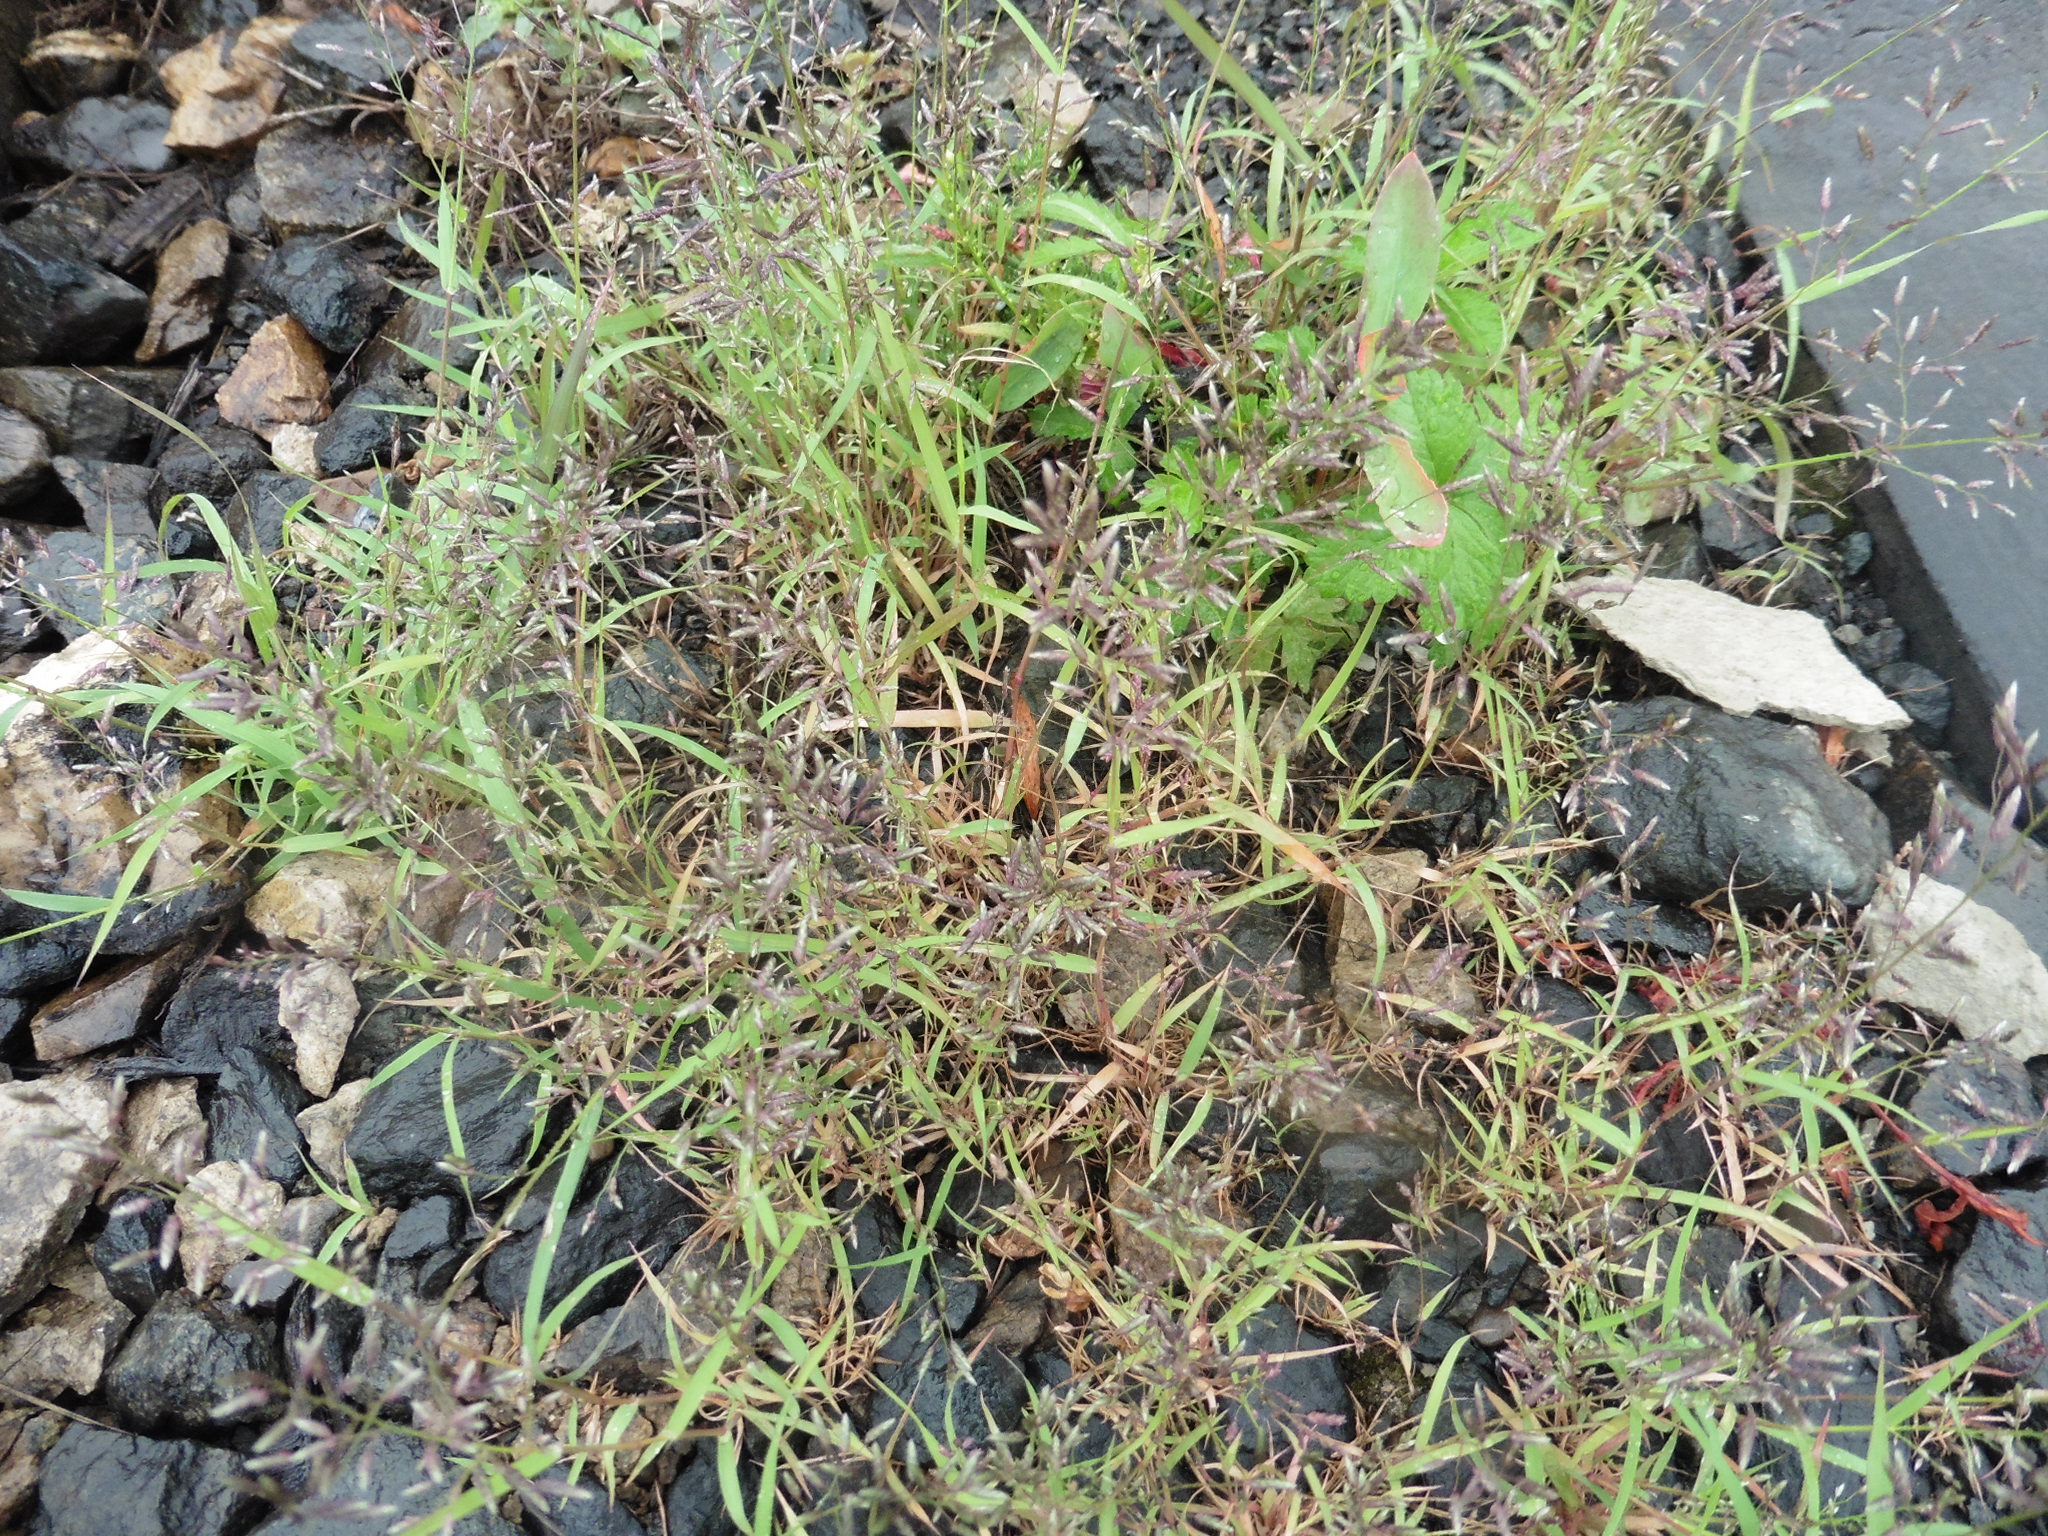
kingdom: Plantae
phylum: Tracheophyta
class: Liliopsida
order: Poales
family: Poaceae
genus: Eragrostis
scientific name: Eragrostis minor
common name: Small love-grass
